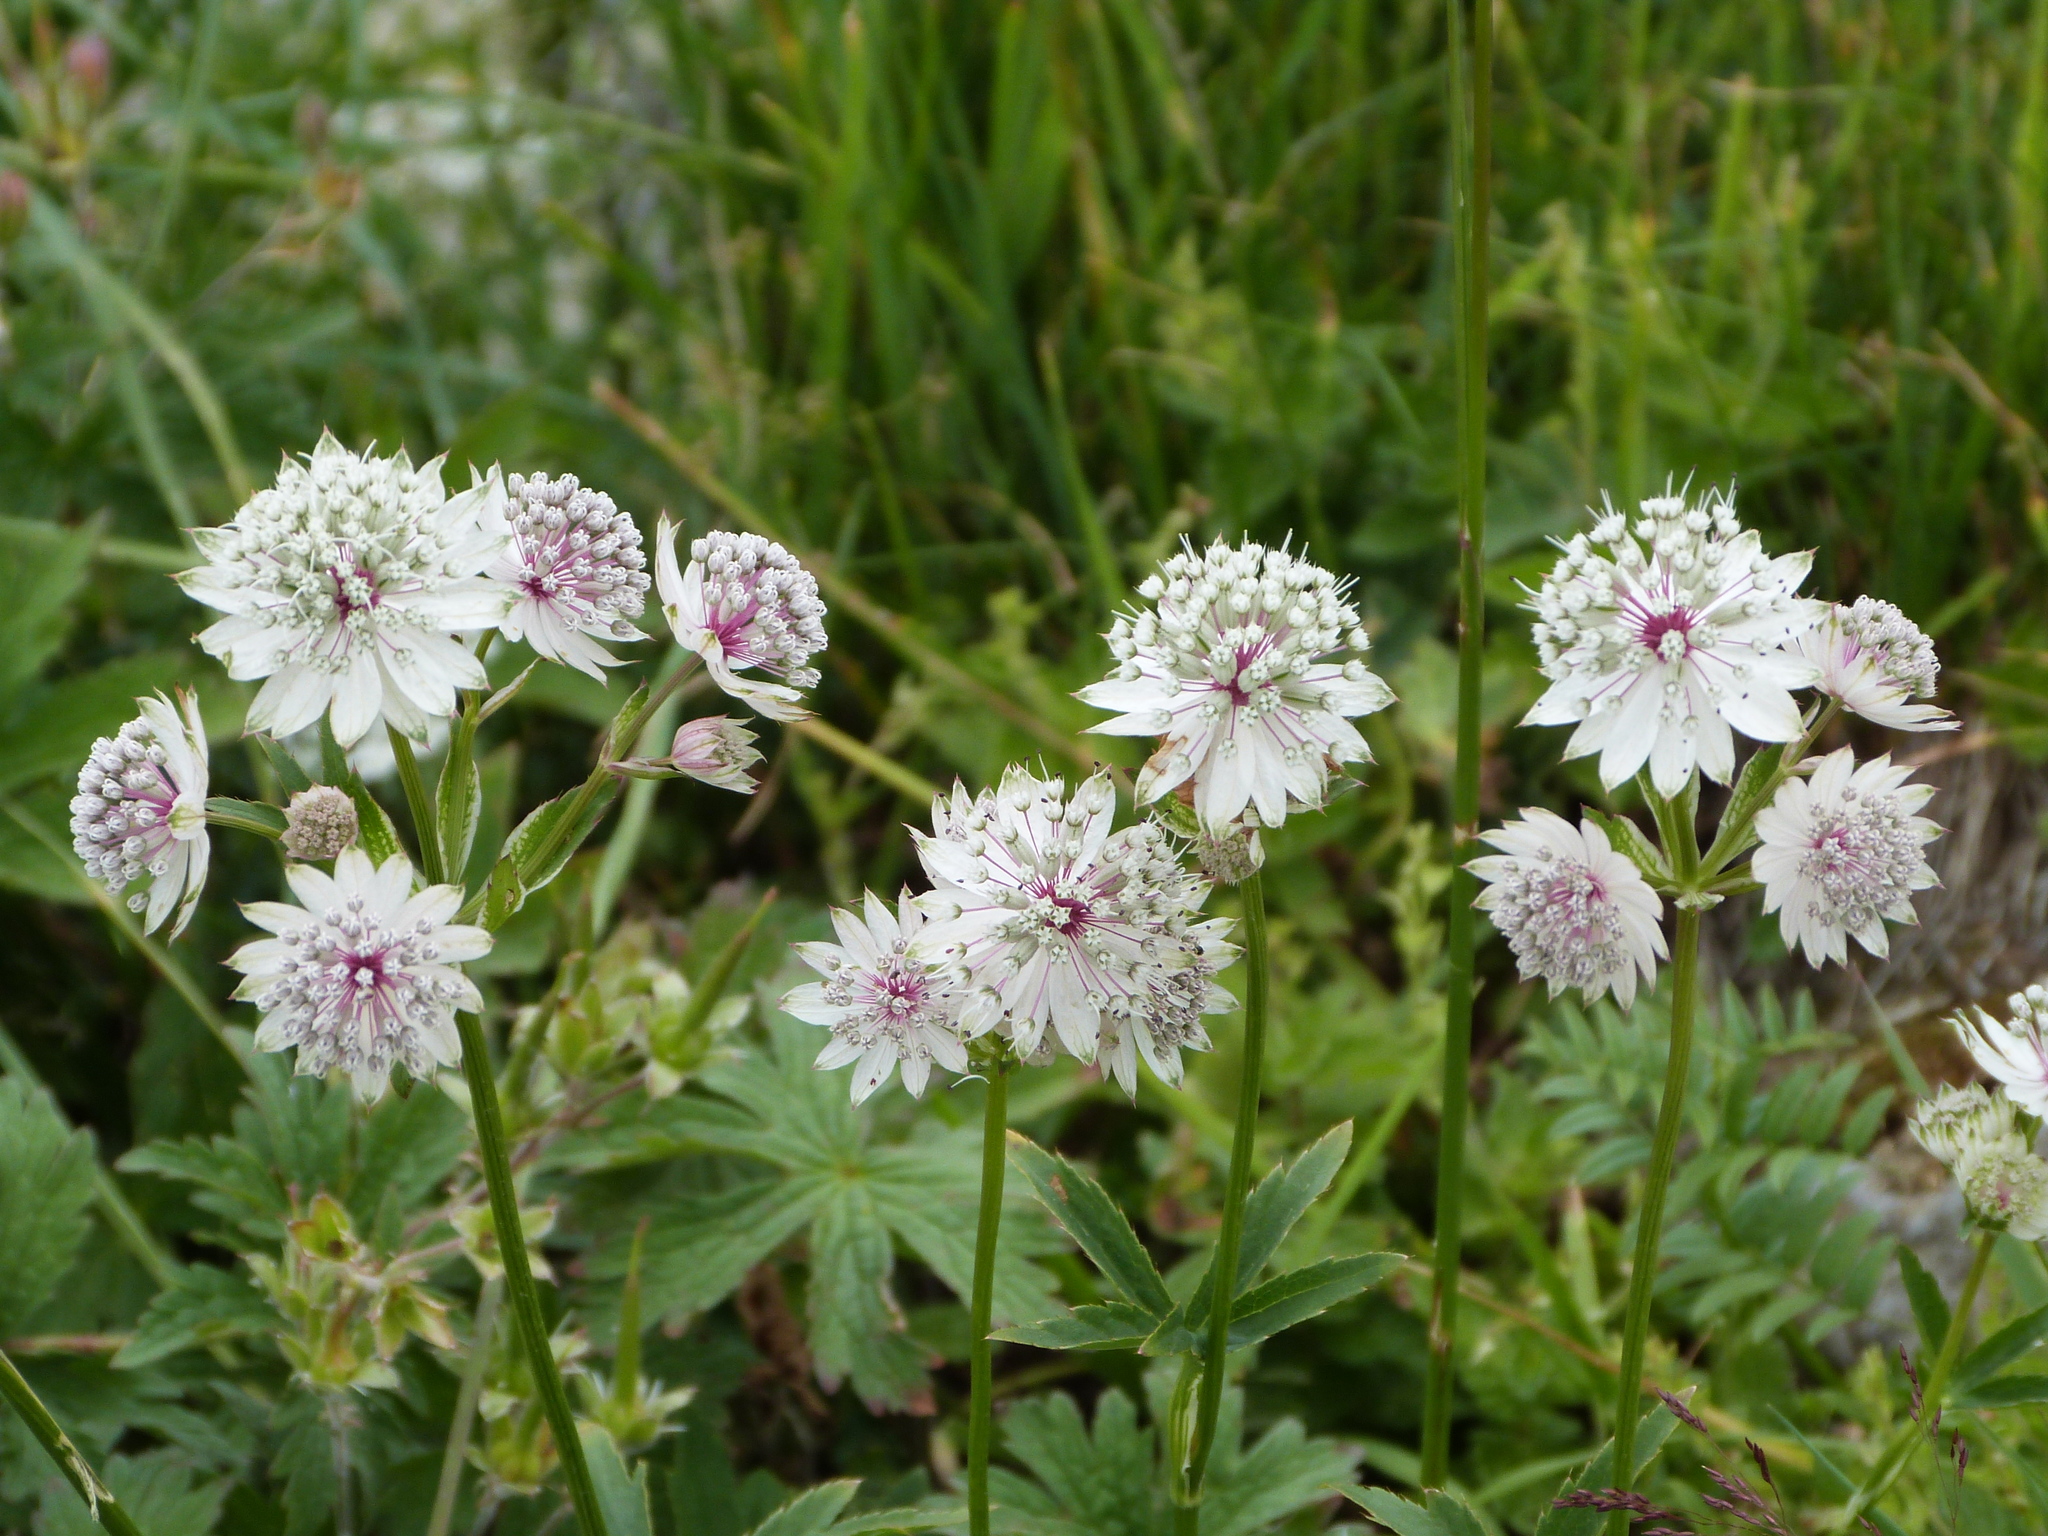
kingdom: Plantae
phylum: Tracheophyta
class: Magnoliopsida
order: Apiales
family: Apiaceae
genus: Astrantia
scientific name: Astrantia major
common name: Greater masterwort
